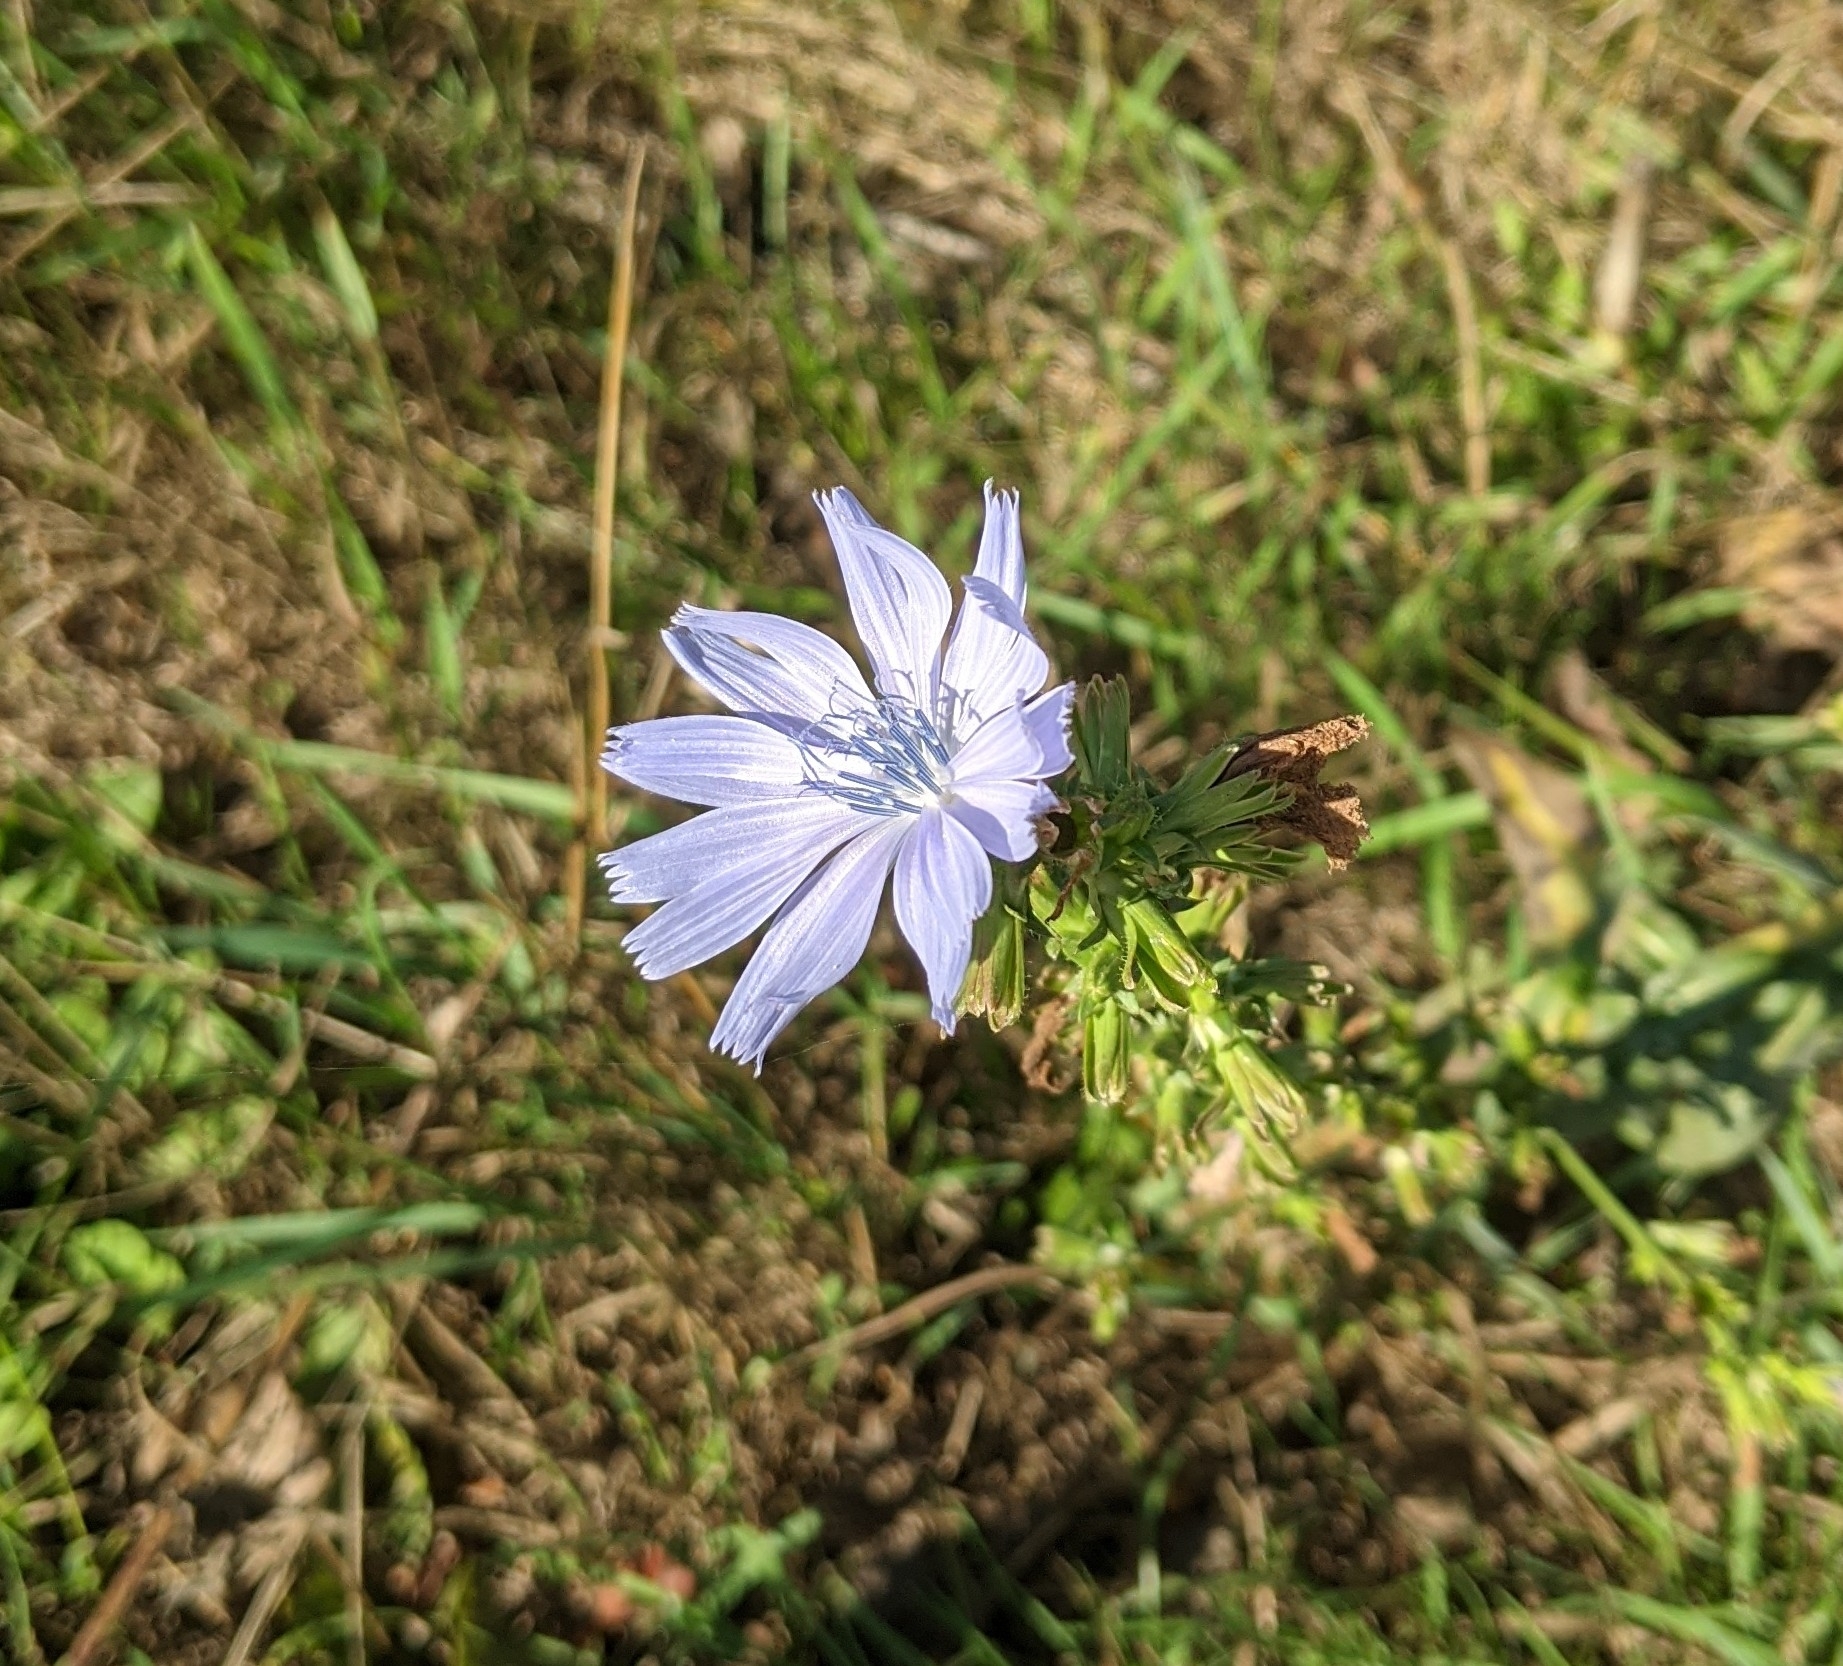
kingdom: Plantae
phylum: Tracheophyta
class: Magnoliopsida
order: Asterales
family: Asteraceae
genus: Cichorium
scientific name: Cichorium intybus
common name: Chicory
